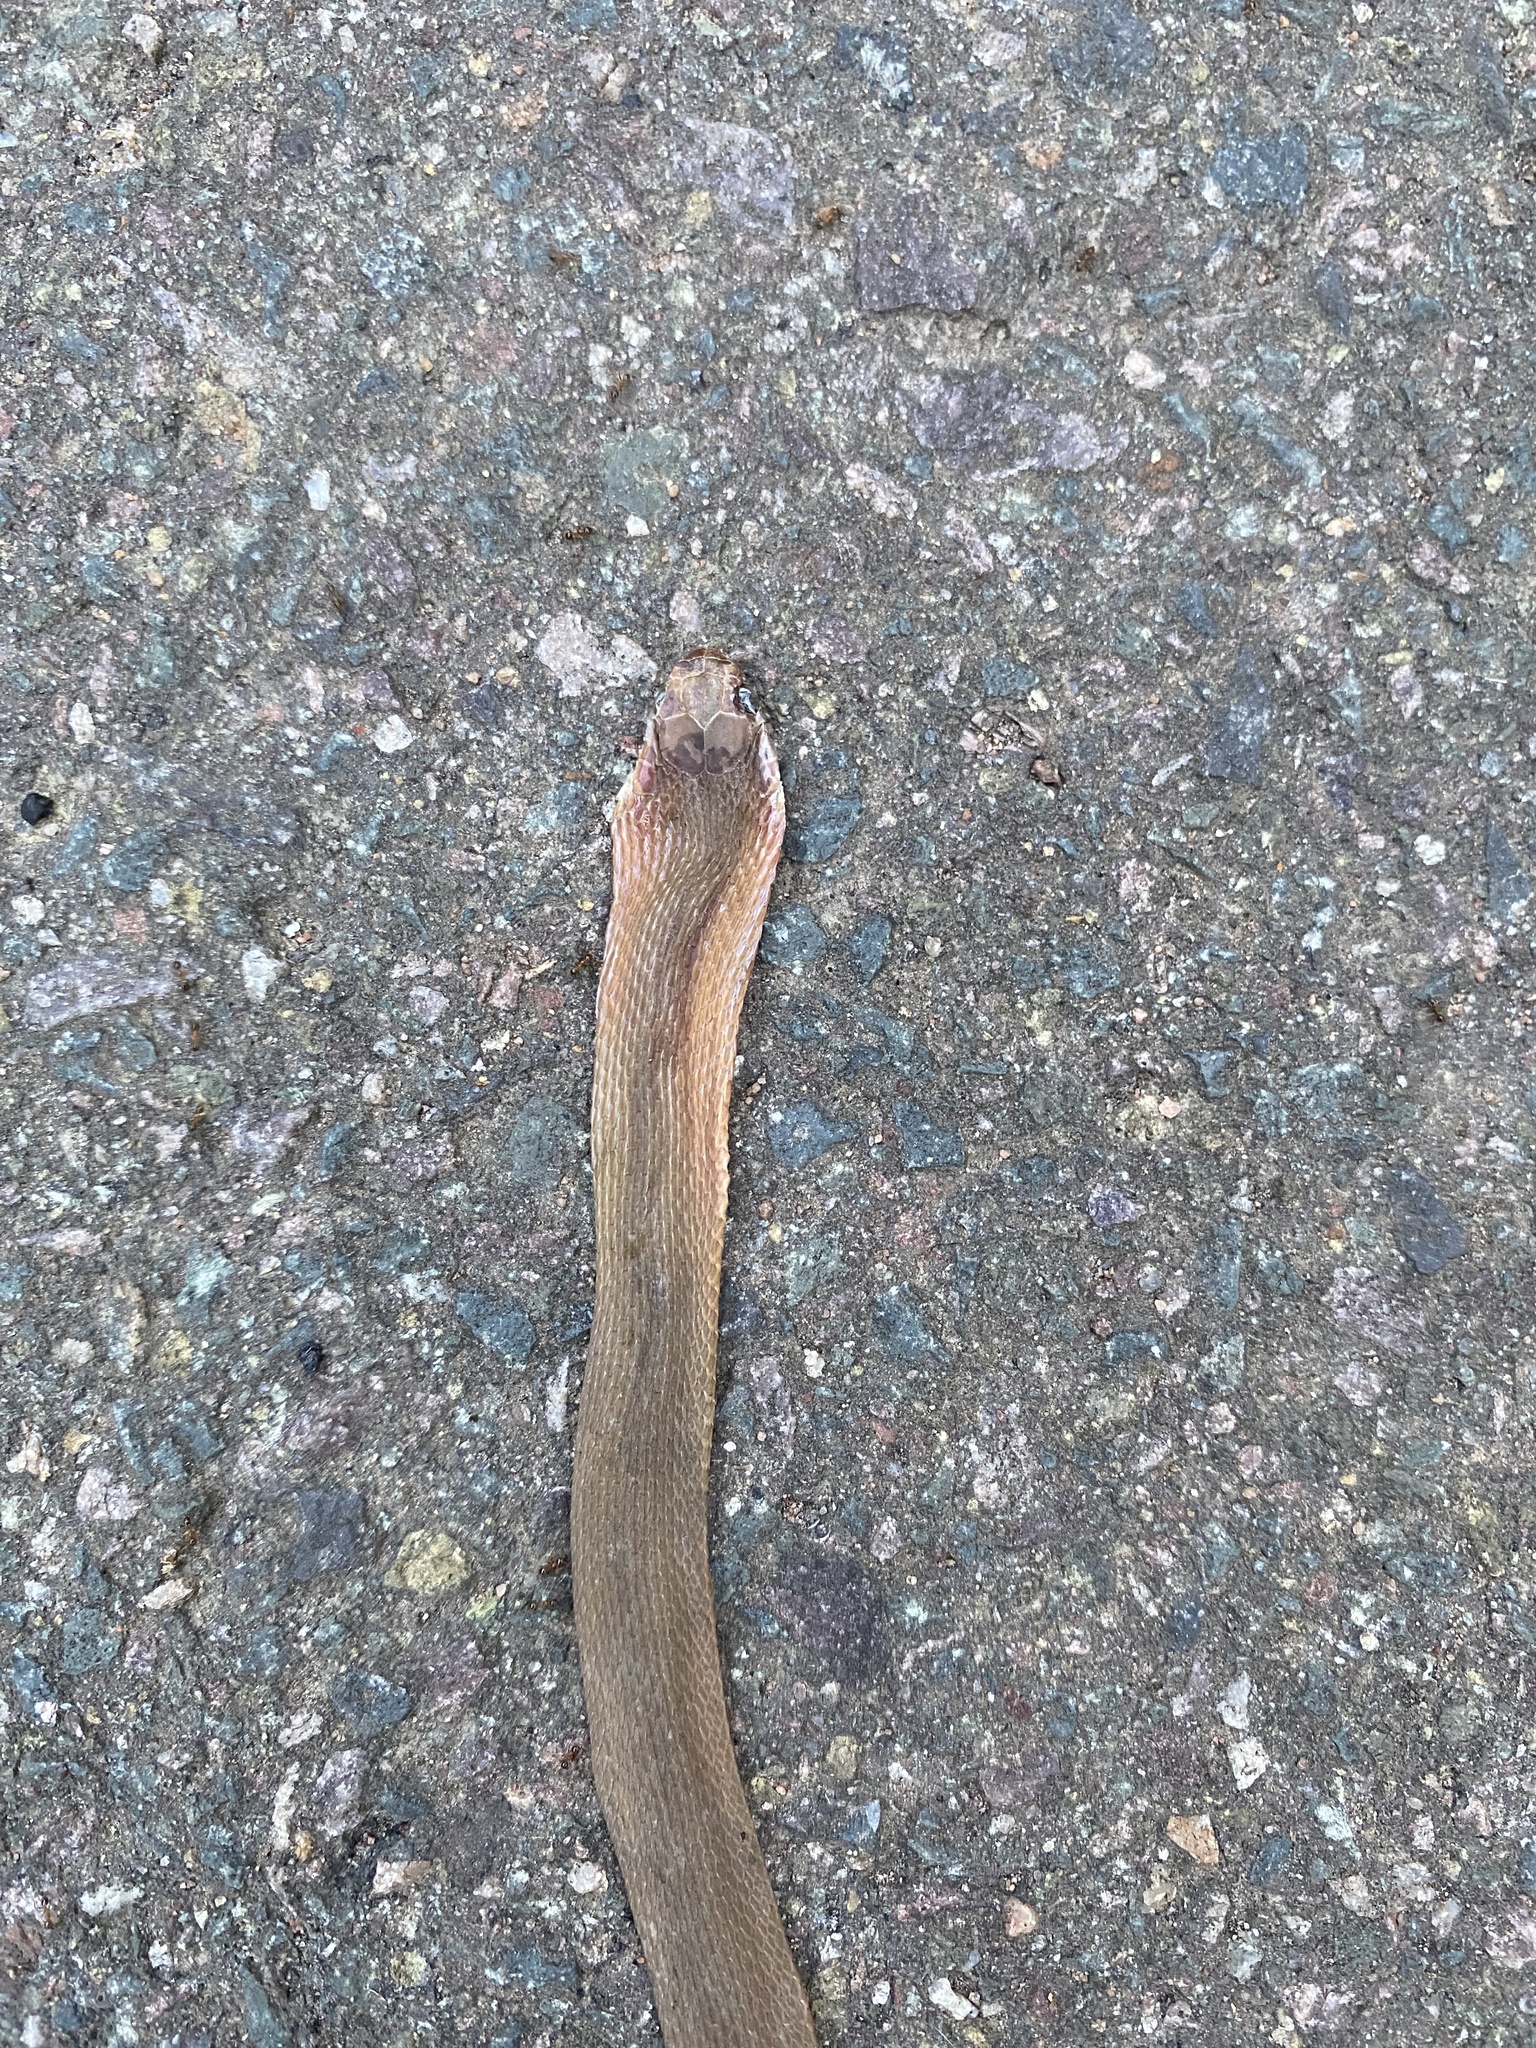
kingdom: Animalia
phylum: Chordata
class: Squamata
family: Colubridae
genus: Dasypeltis
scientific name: Dasypeltis inornata
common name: Southern brown egg eater
